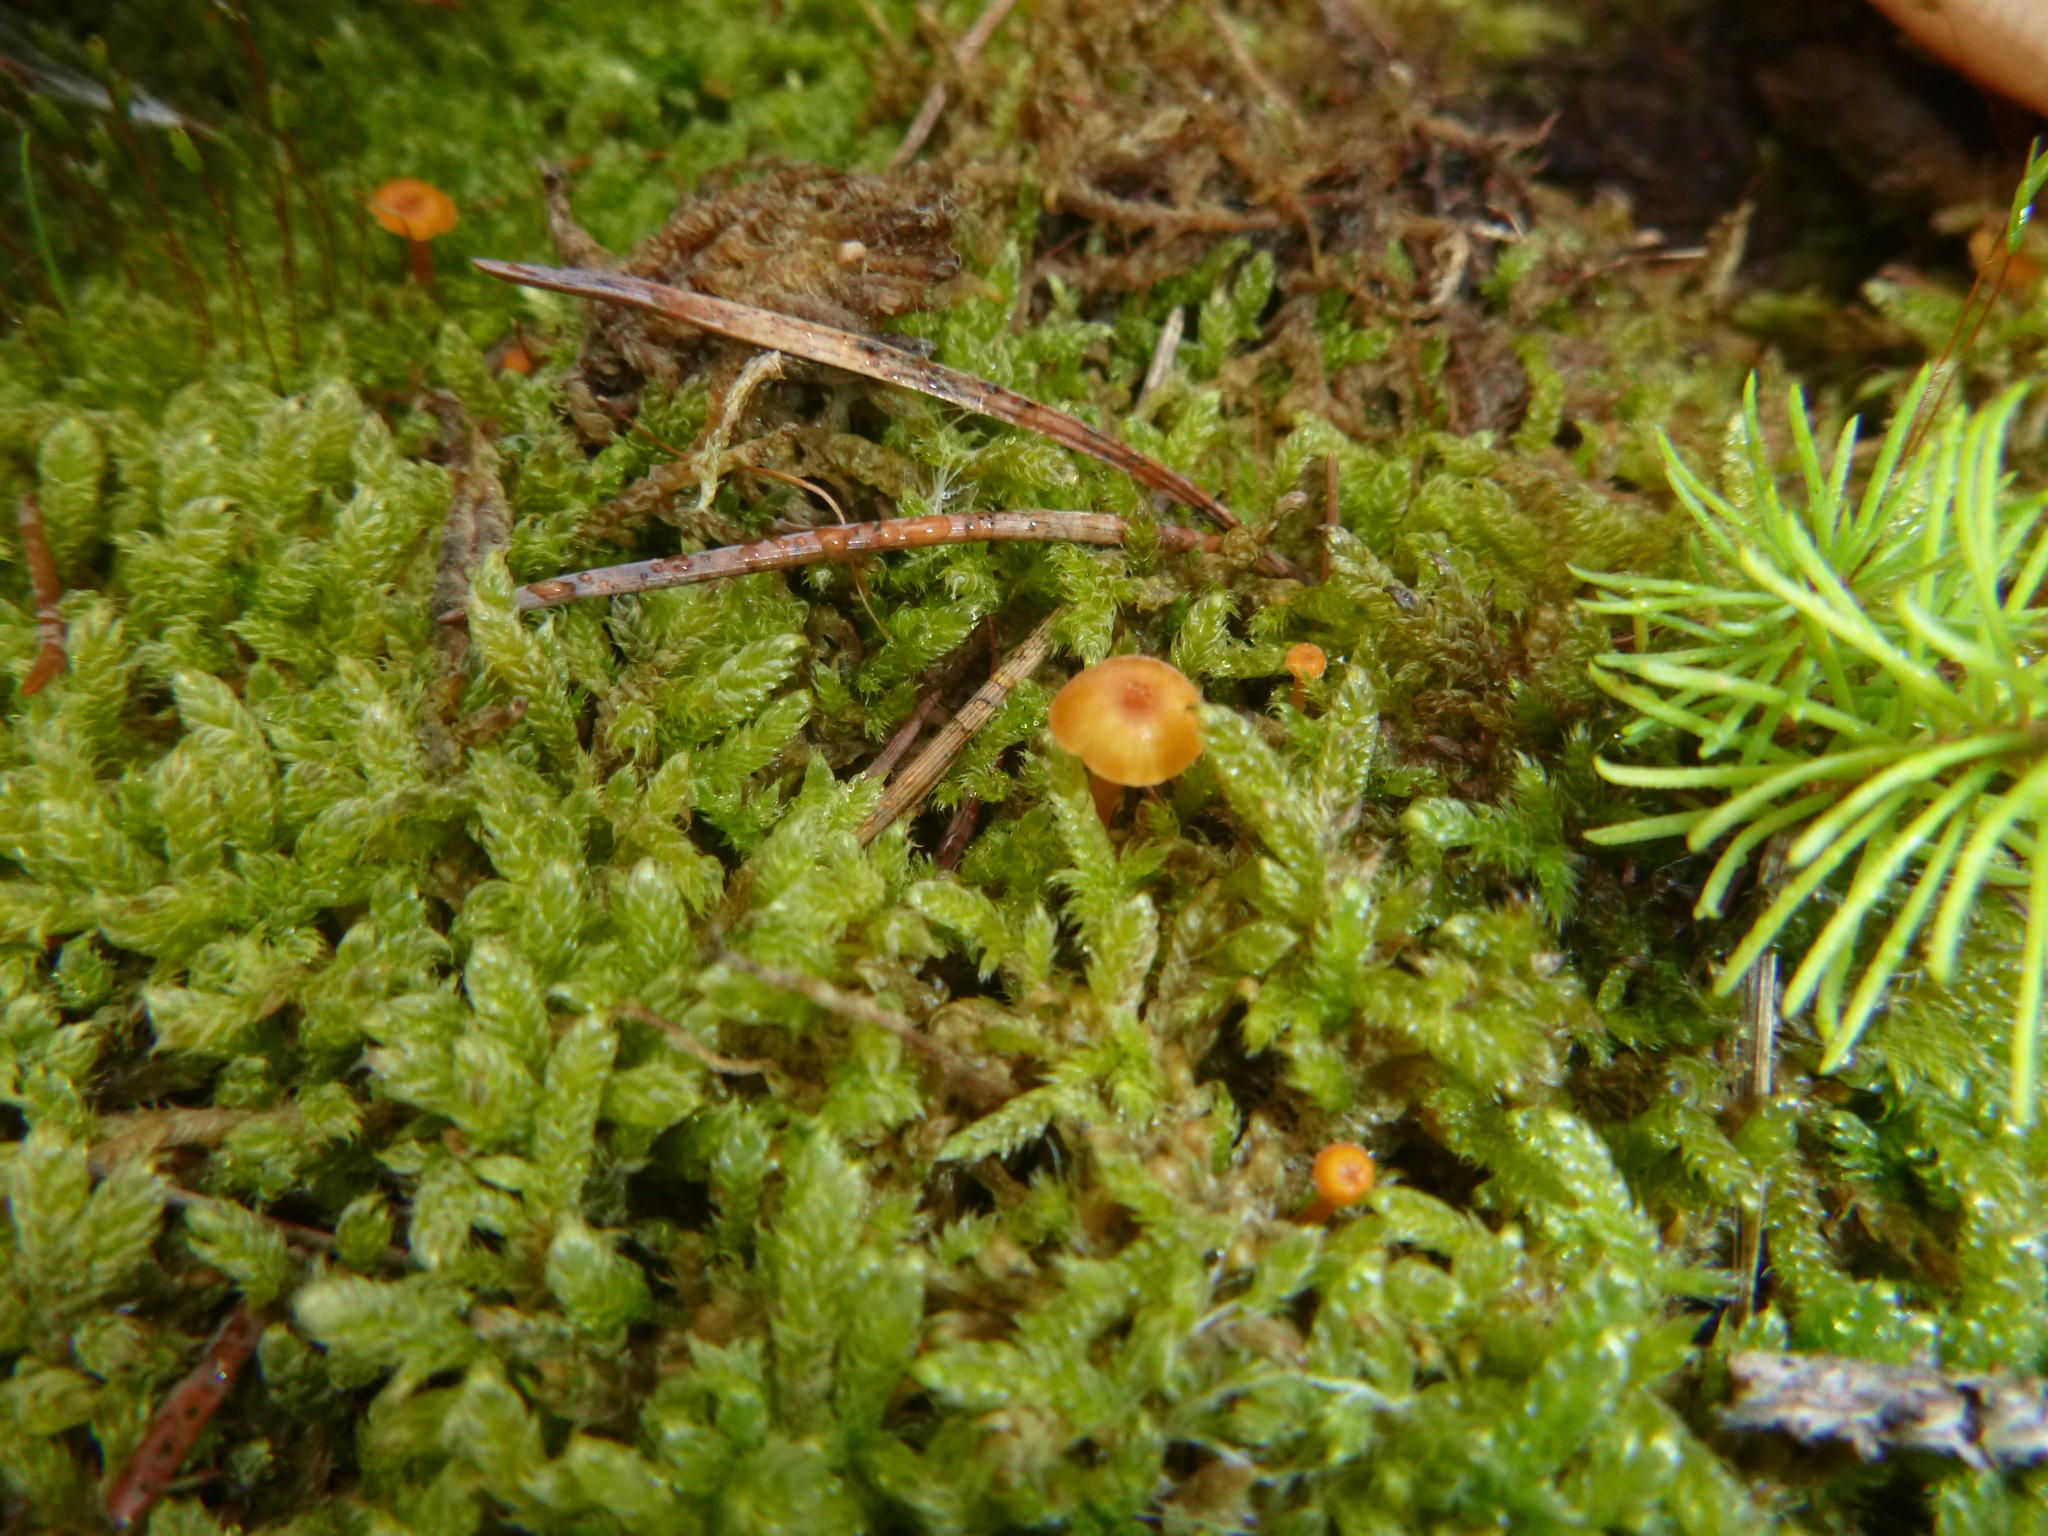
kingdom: Fungi
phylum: Basidiomycota
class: Agaricomycetes
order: Hymenochaetales
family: Rickenellaceae
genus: Rickenella
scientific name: Rickenella fibula
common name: Orange mosscap
